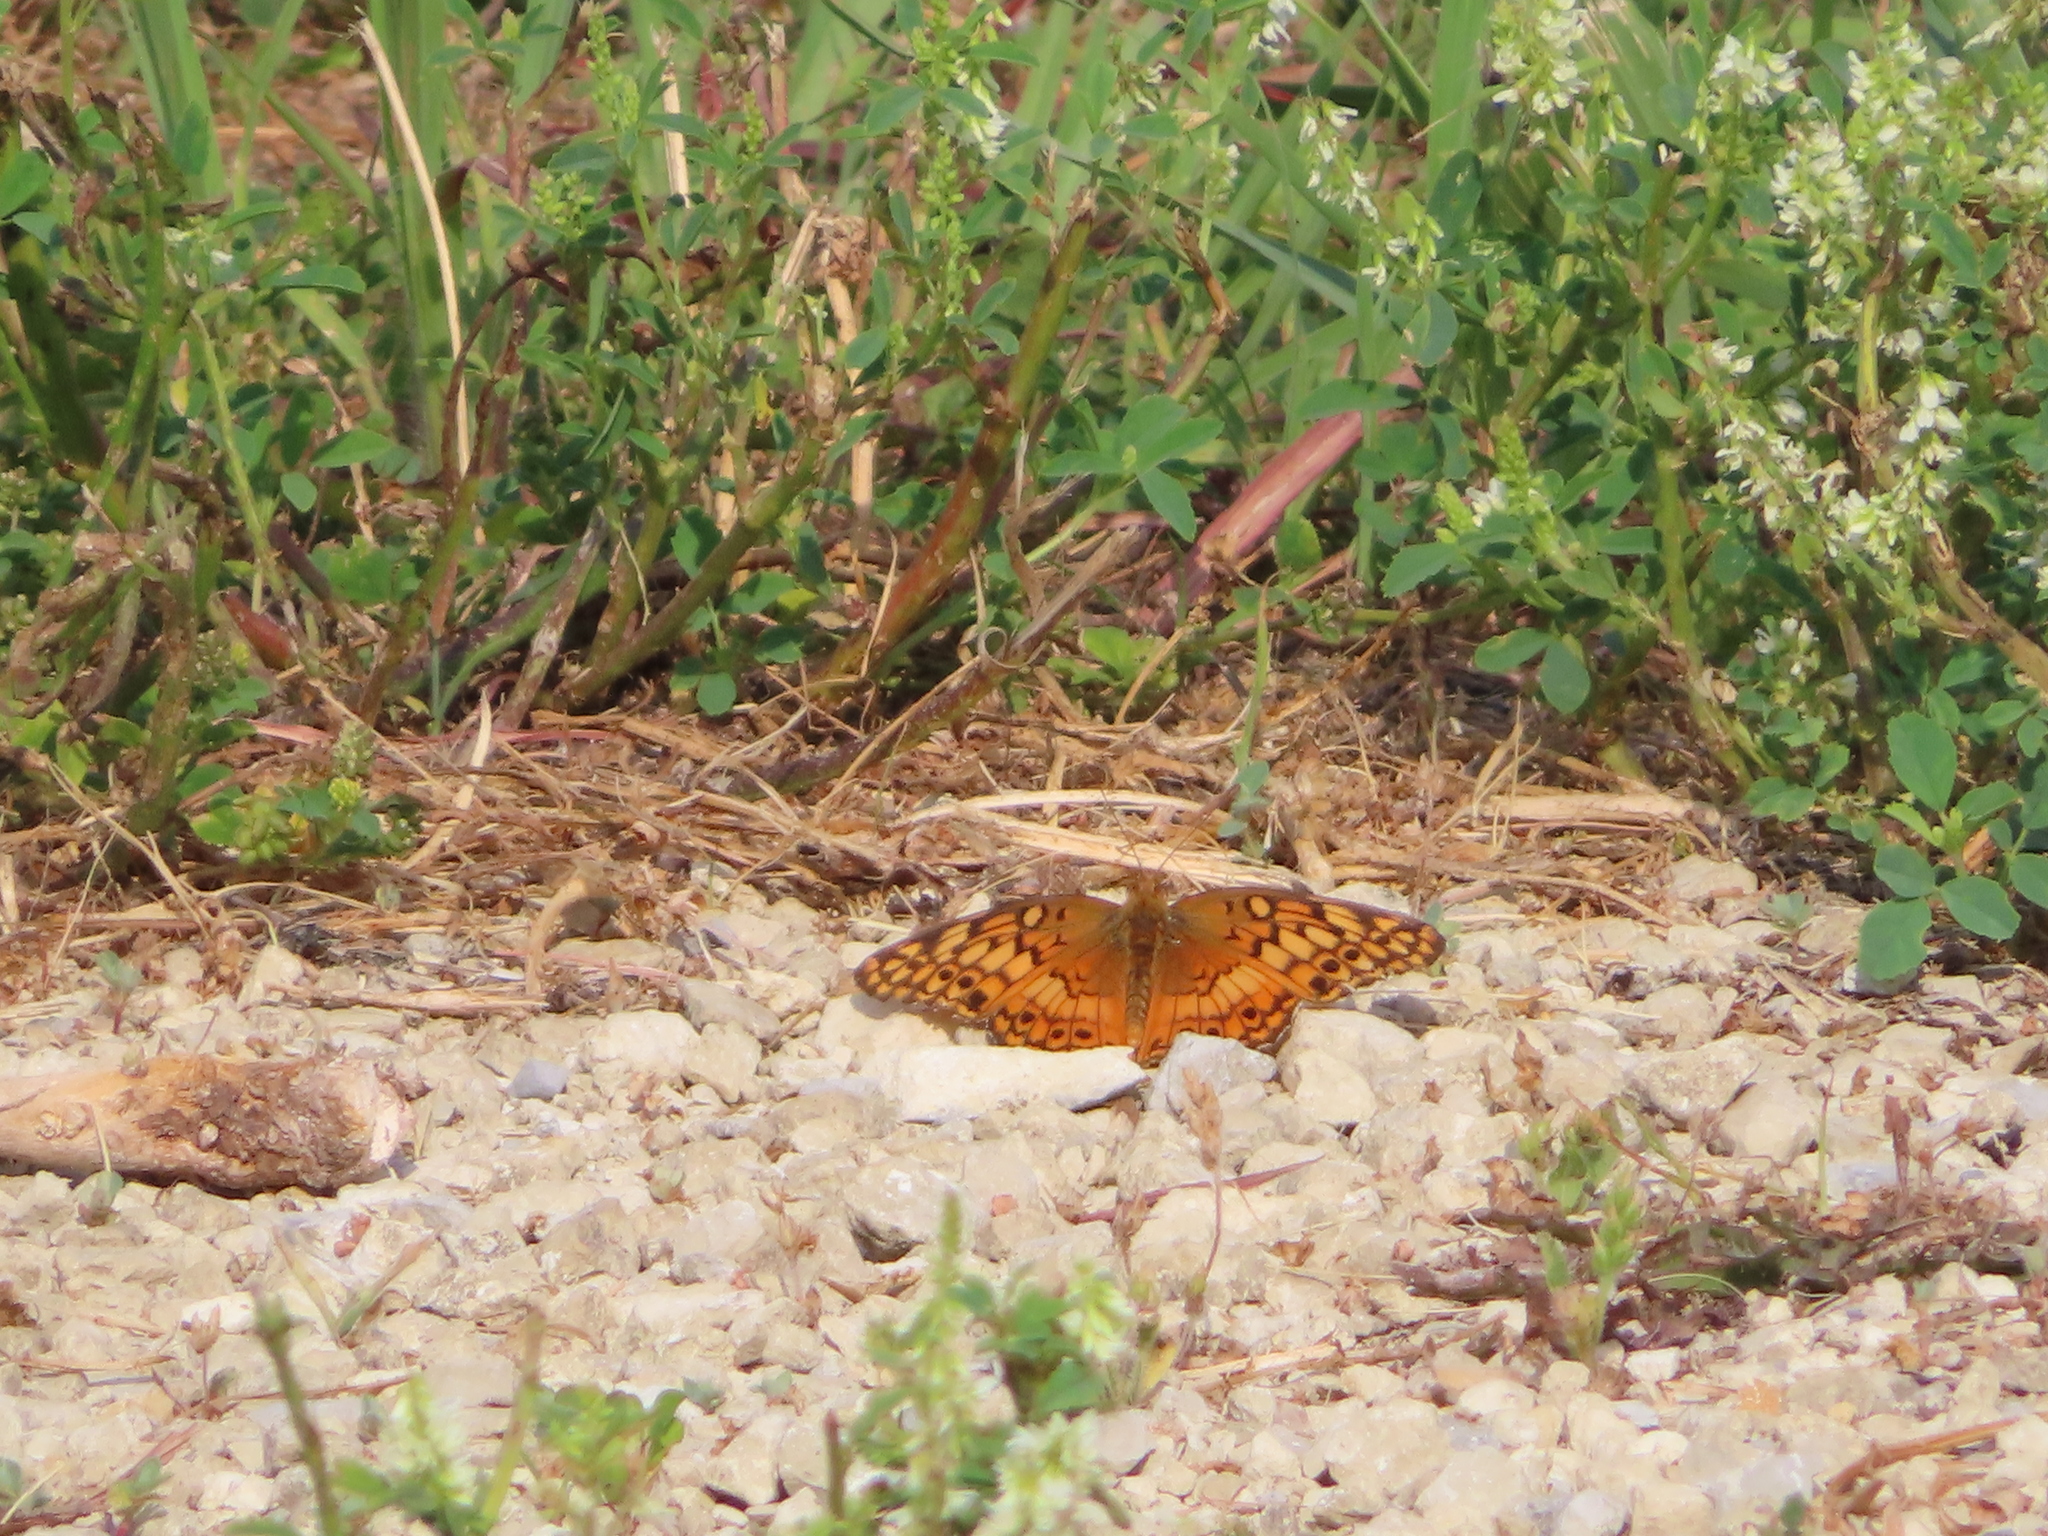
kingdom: Animalia
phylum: Arthropoda
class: Insecta
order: Lepidoptera
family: Nymphalidae
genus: Euptoieta
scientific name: Euptoieta claudia
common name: Variegated fritillary
